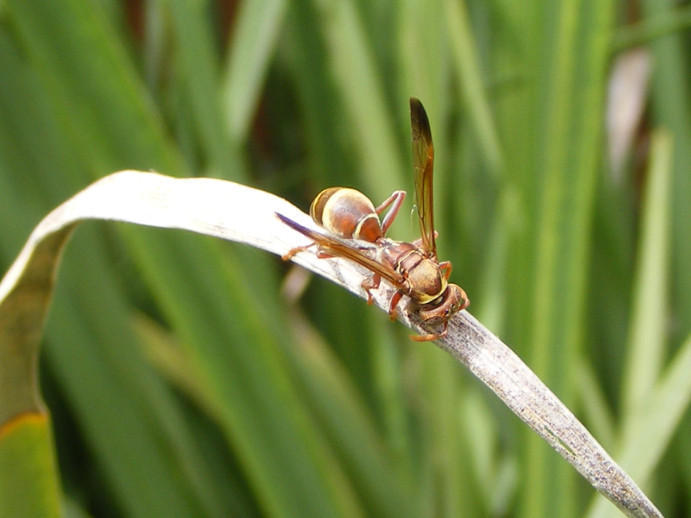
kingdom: Animalia
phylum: Arthropoda
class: Insecta
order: Hymenoptera
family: Eumenidae
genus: Polistes
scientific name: Polistes badius
